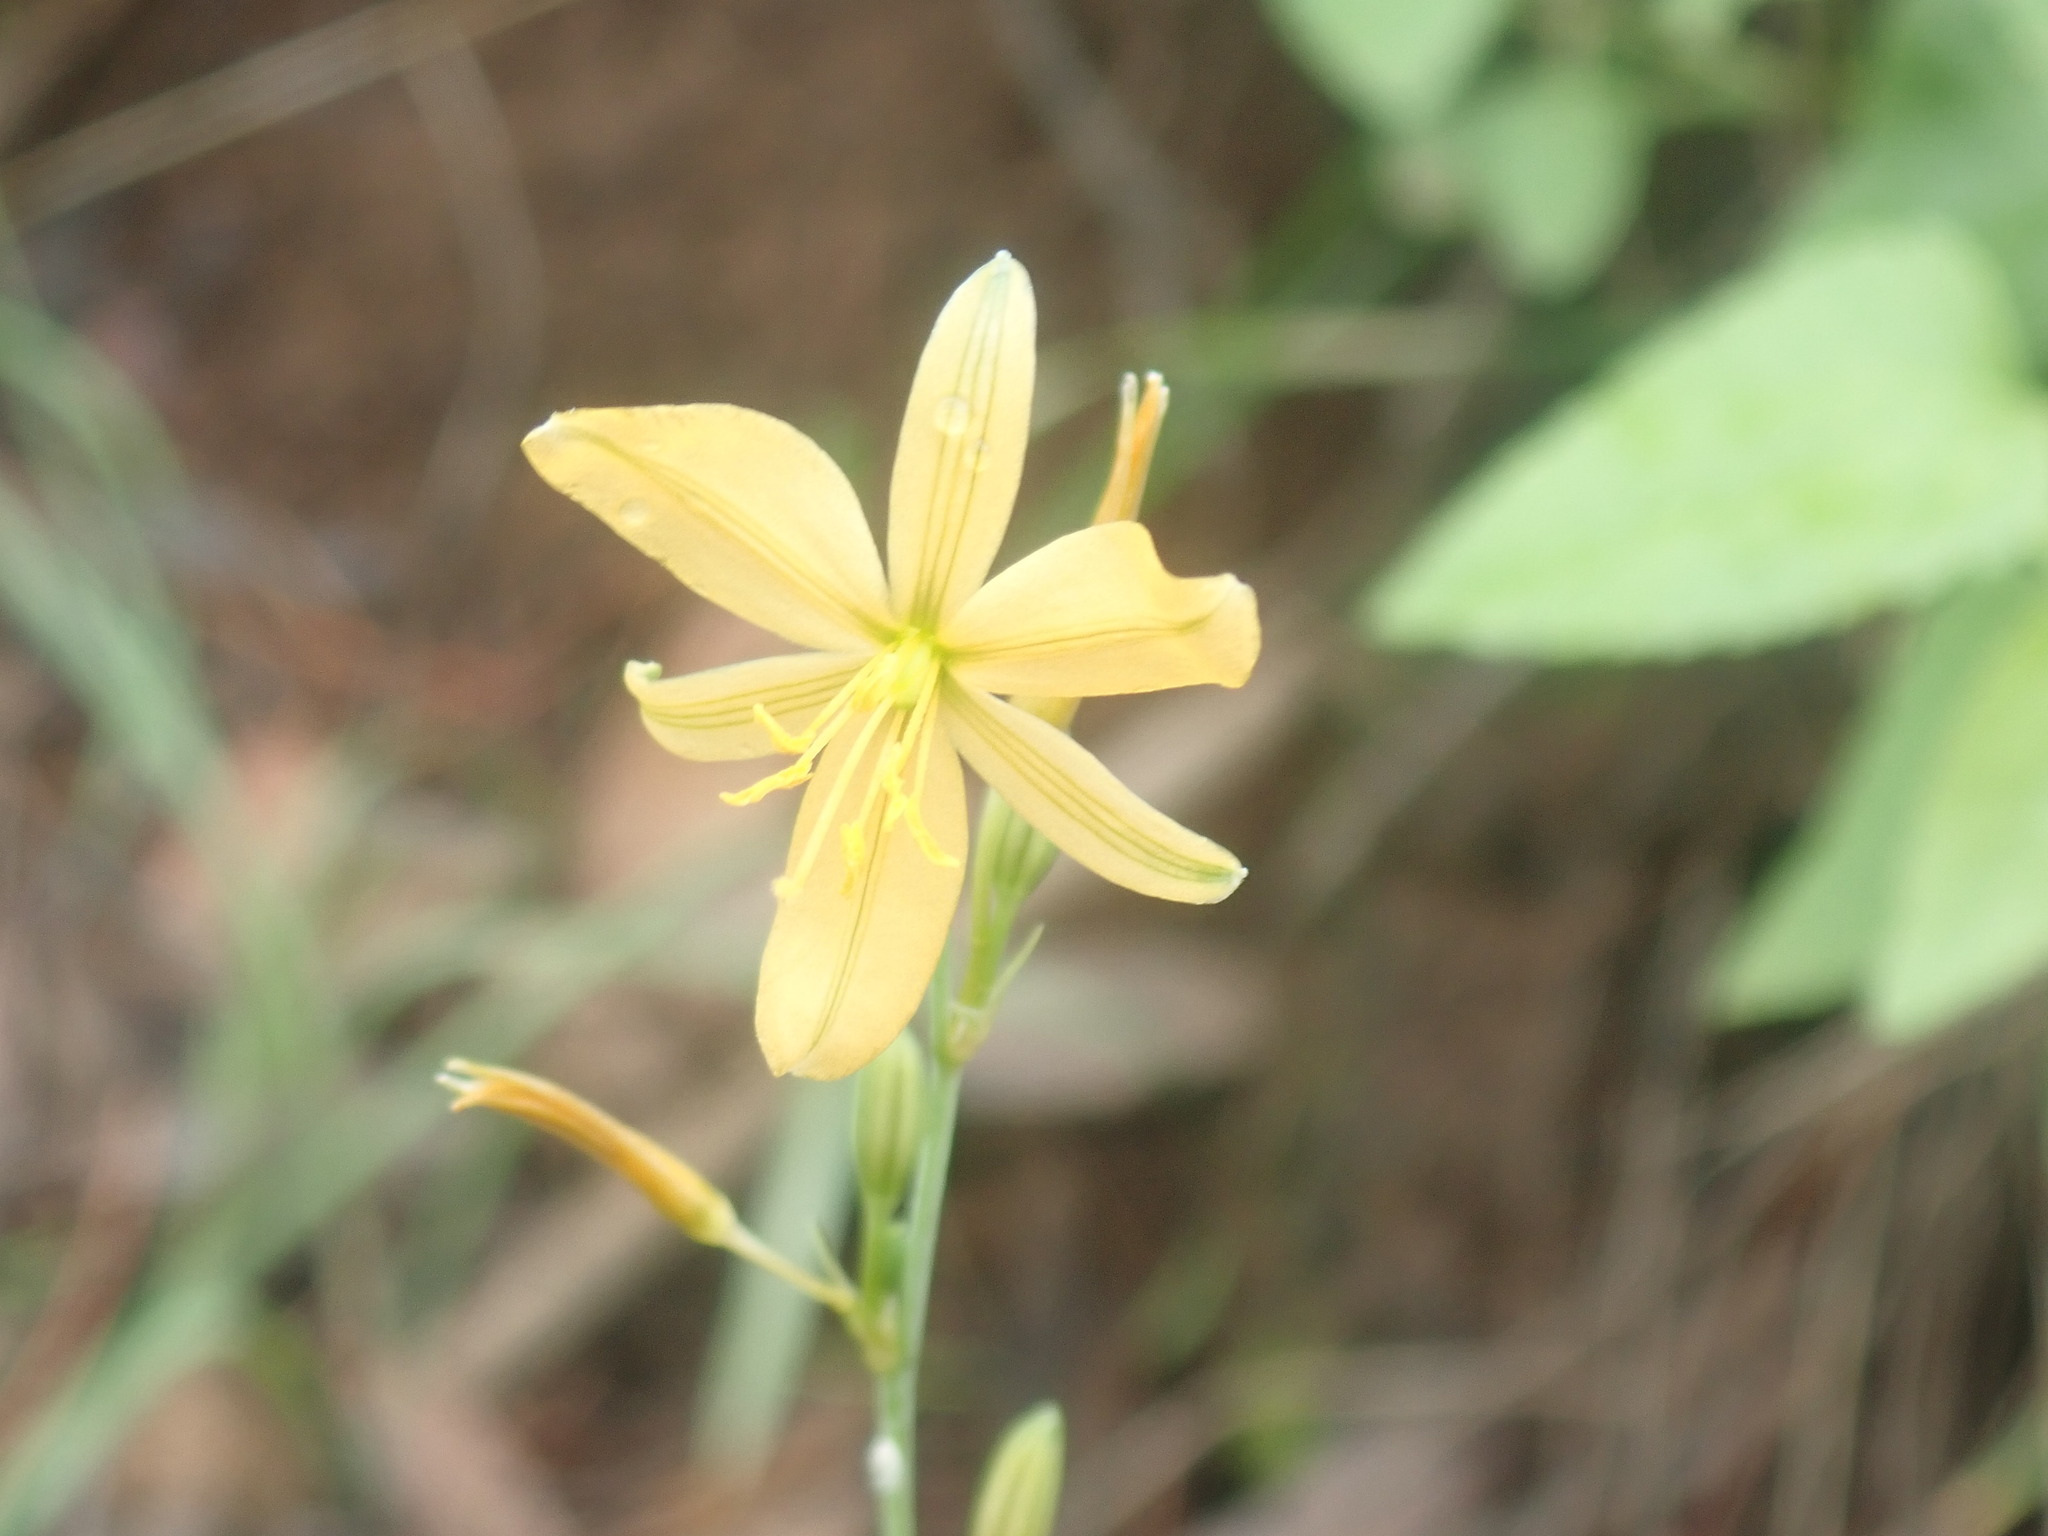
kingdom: Plantae
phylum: Tracheophyta
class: Liliopsida
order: Asparagales
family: Asparagaceae
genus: Echeandia
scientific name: Echeandia flavescens
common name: Amberlily
